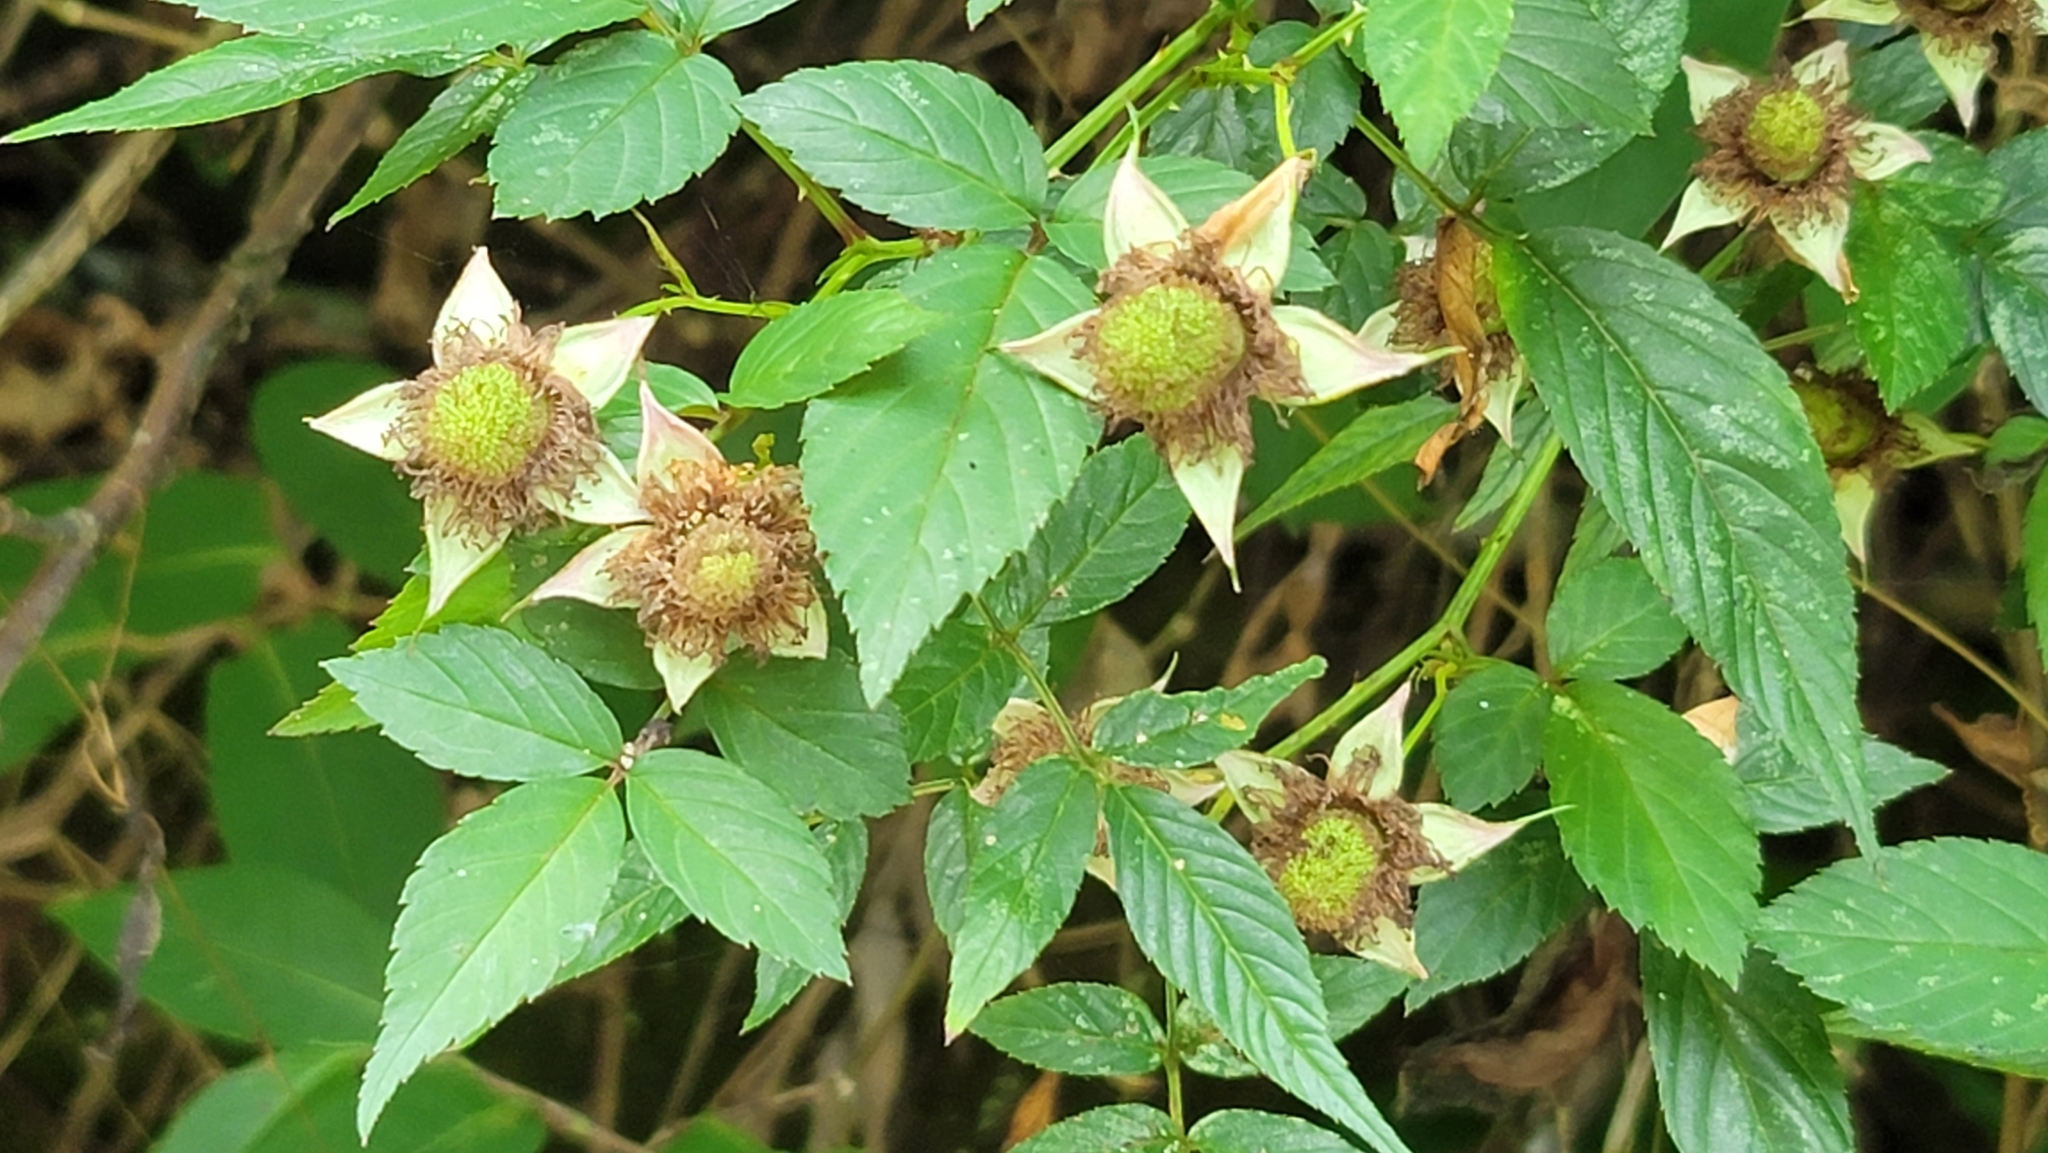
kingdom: Plantae
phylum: Tracheophyta
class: Magnoliopsida
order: Rosales
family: Rosaceae
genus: Rubus
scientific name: Rubus croceacanthus
